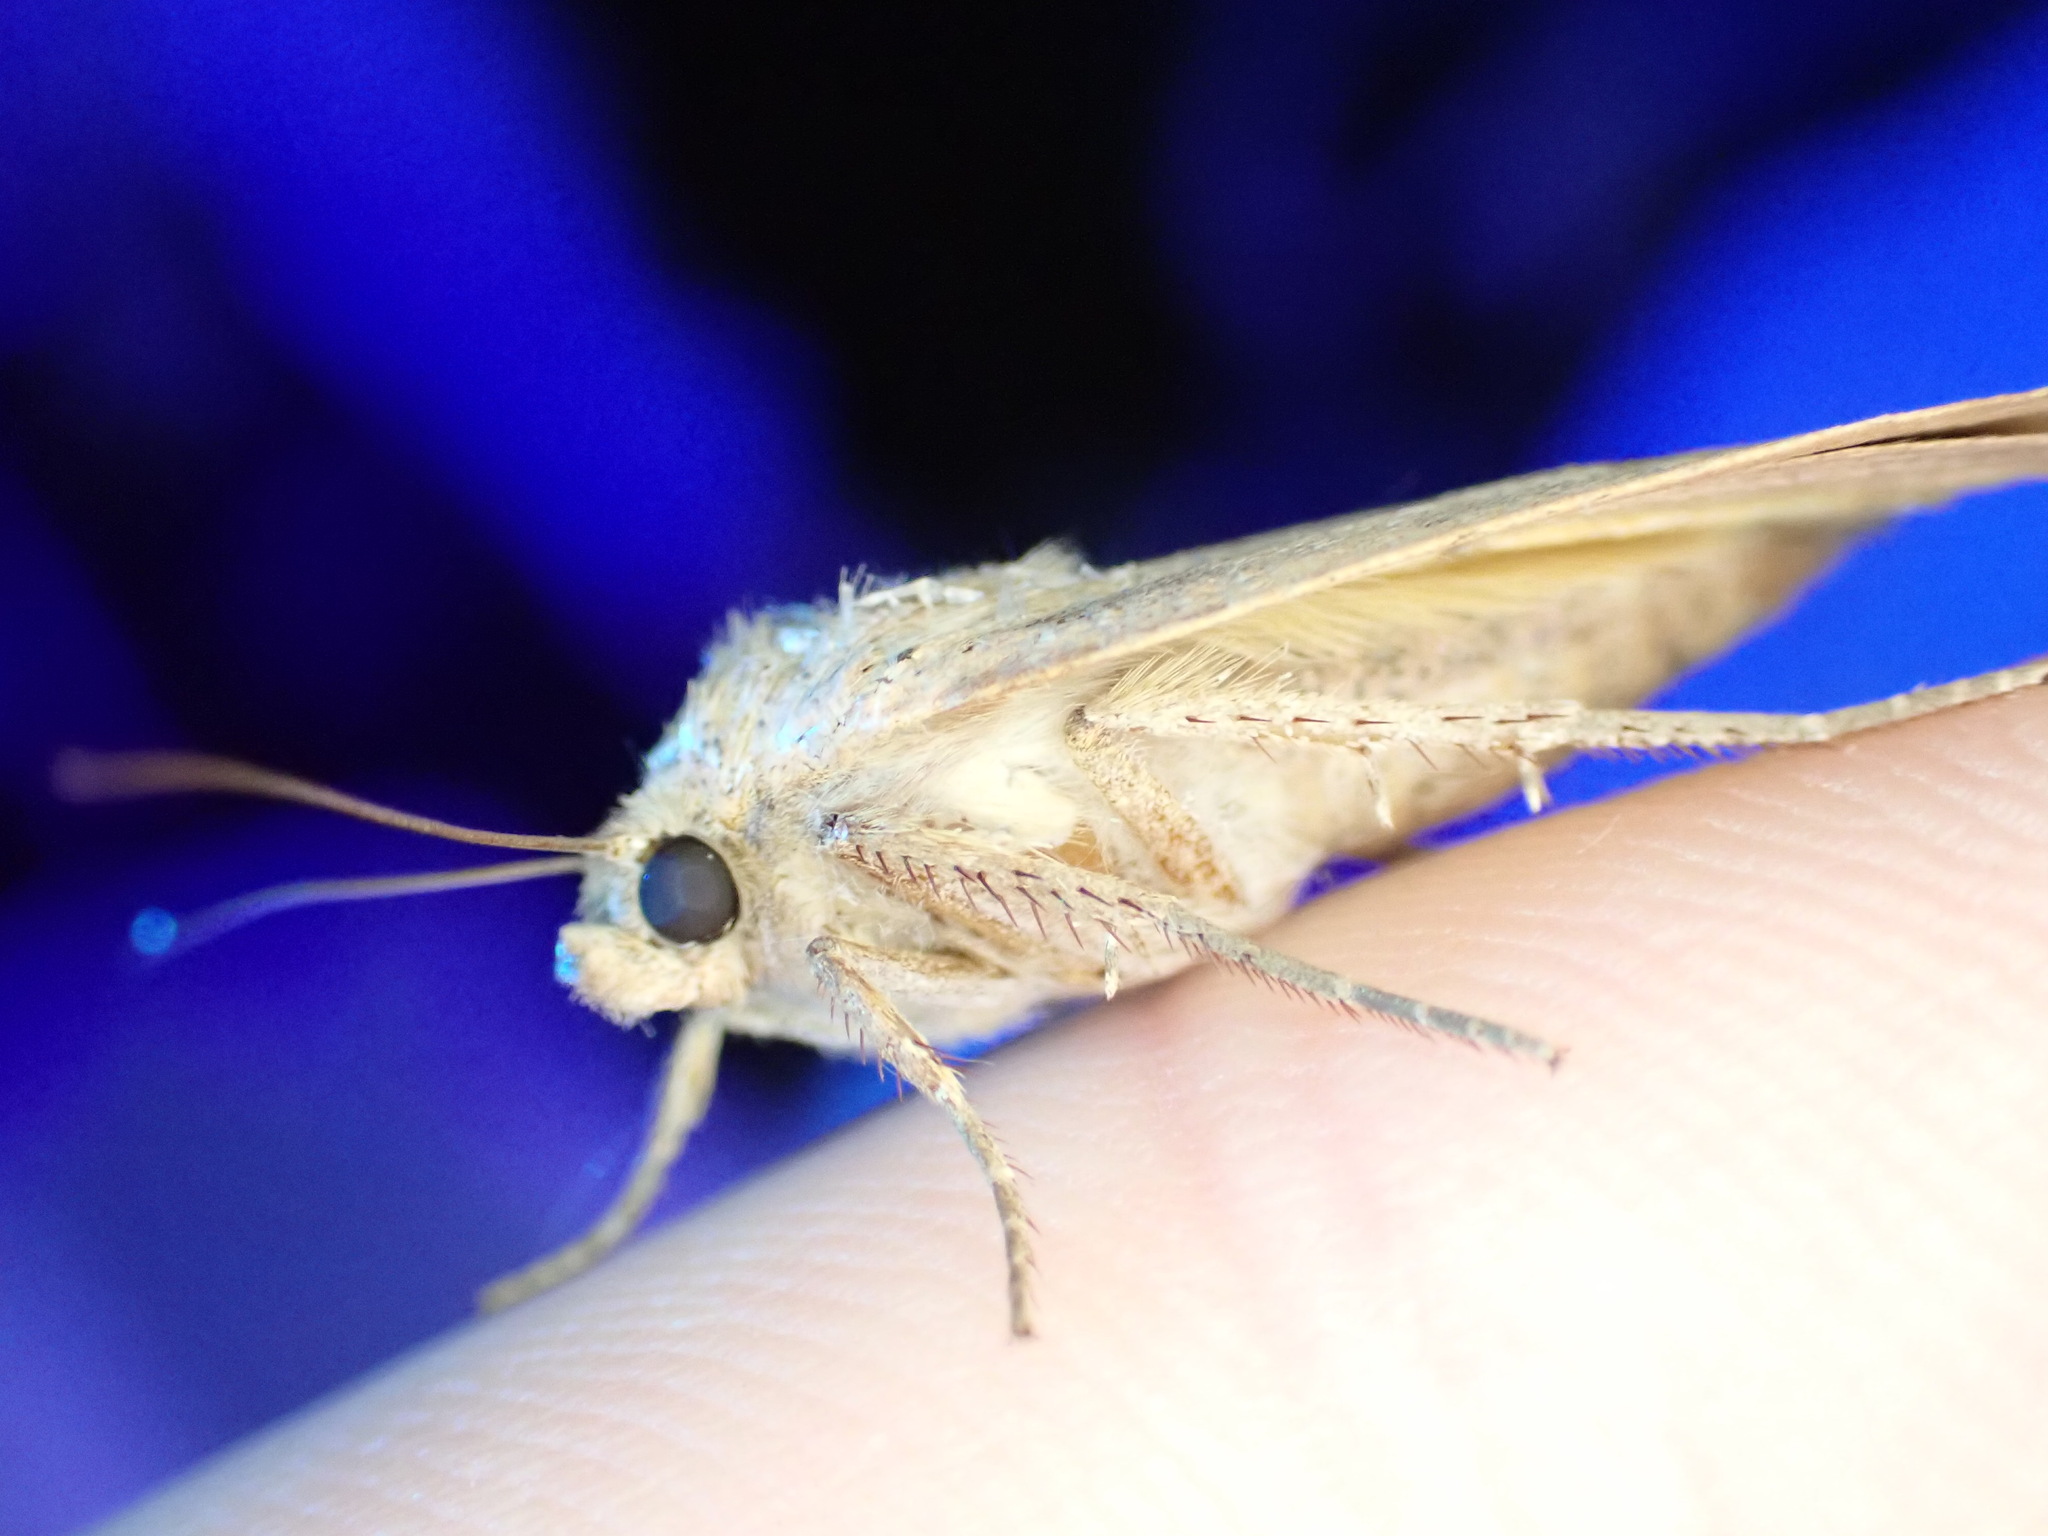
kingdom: Animalia
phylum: Arthropoda
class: Insecta
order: Lepidoptera
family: Noctuidae
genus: Noctua
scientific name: Noctua comes
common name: Lesser yellow underwing
